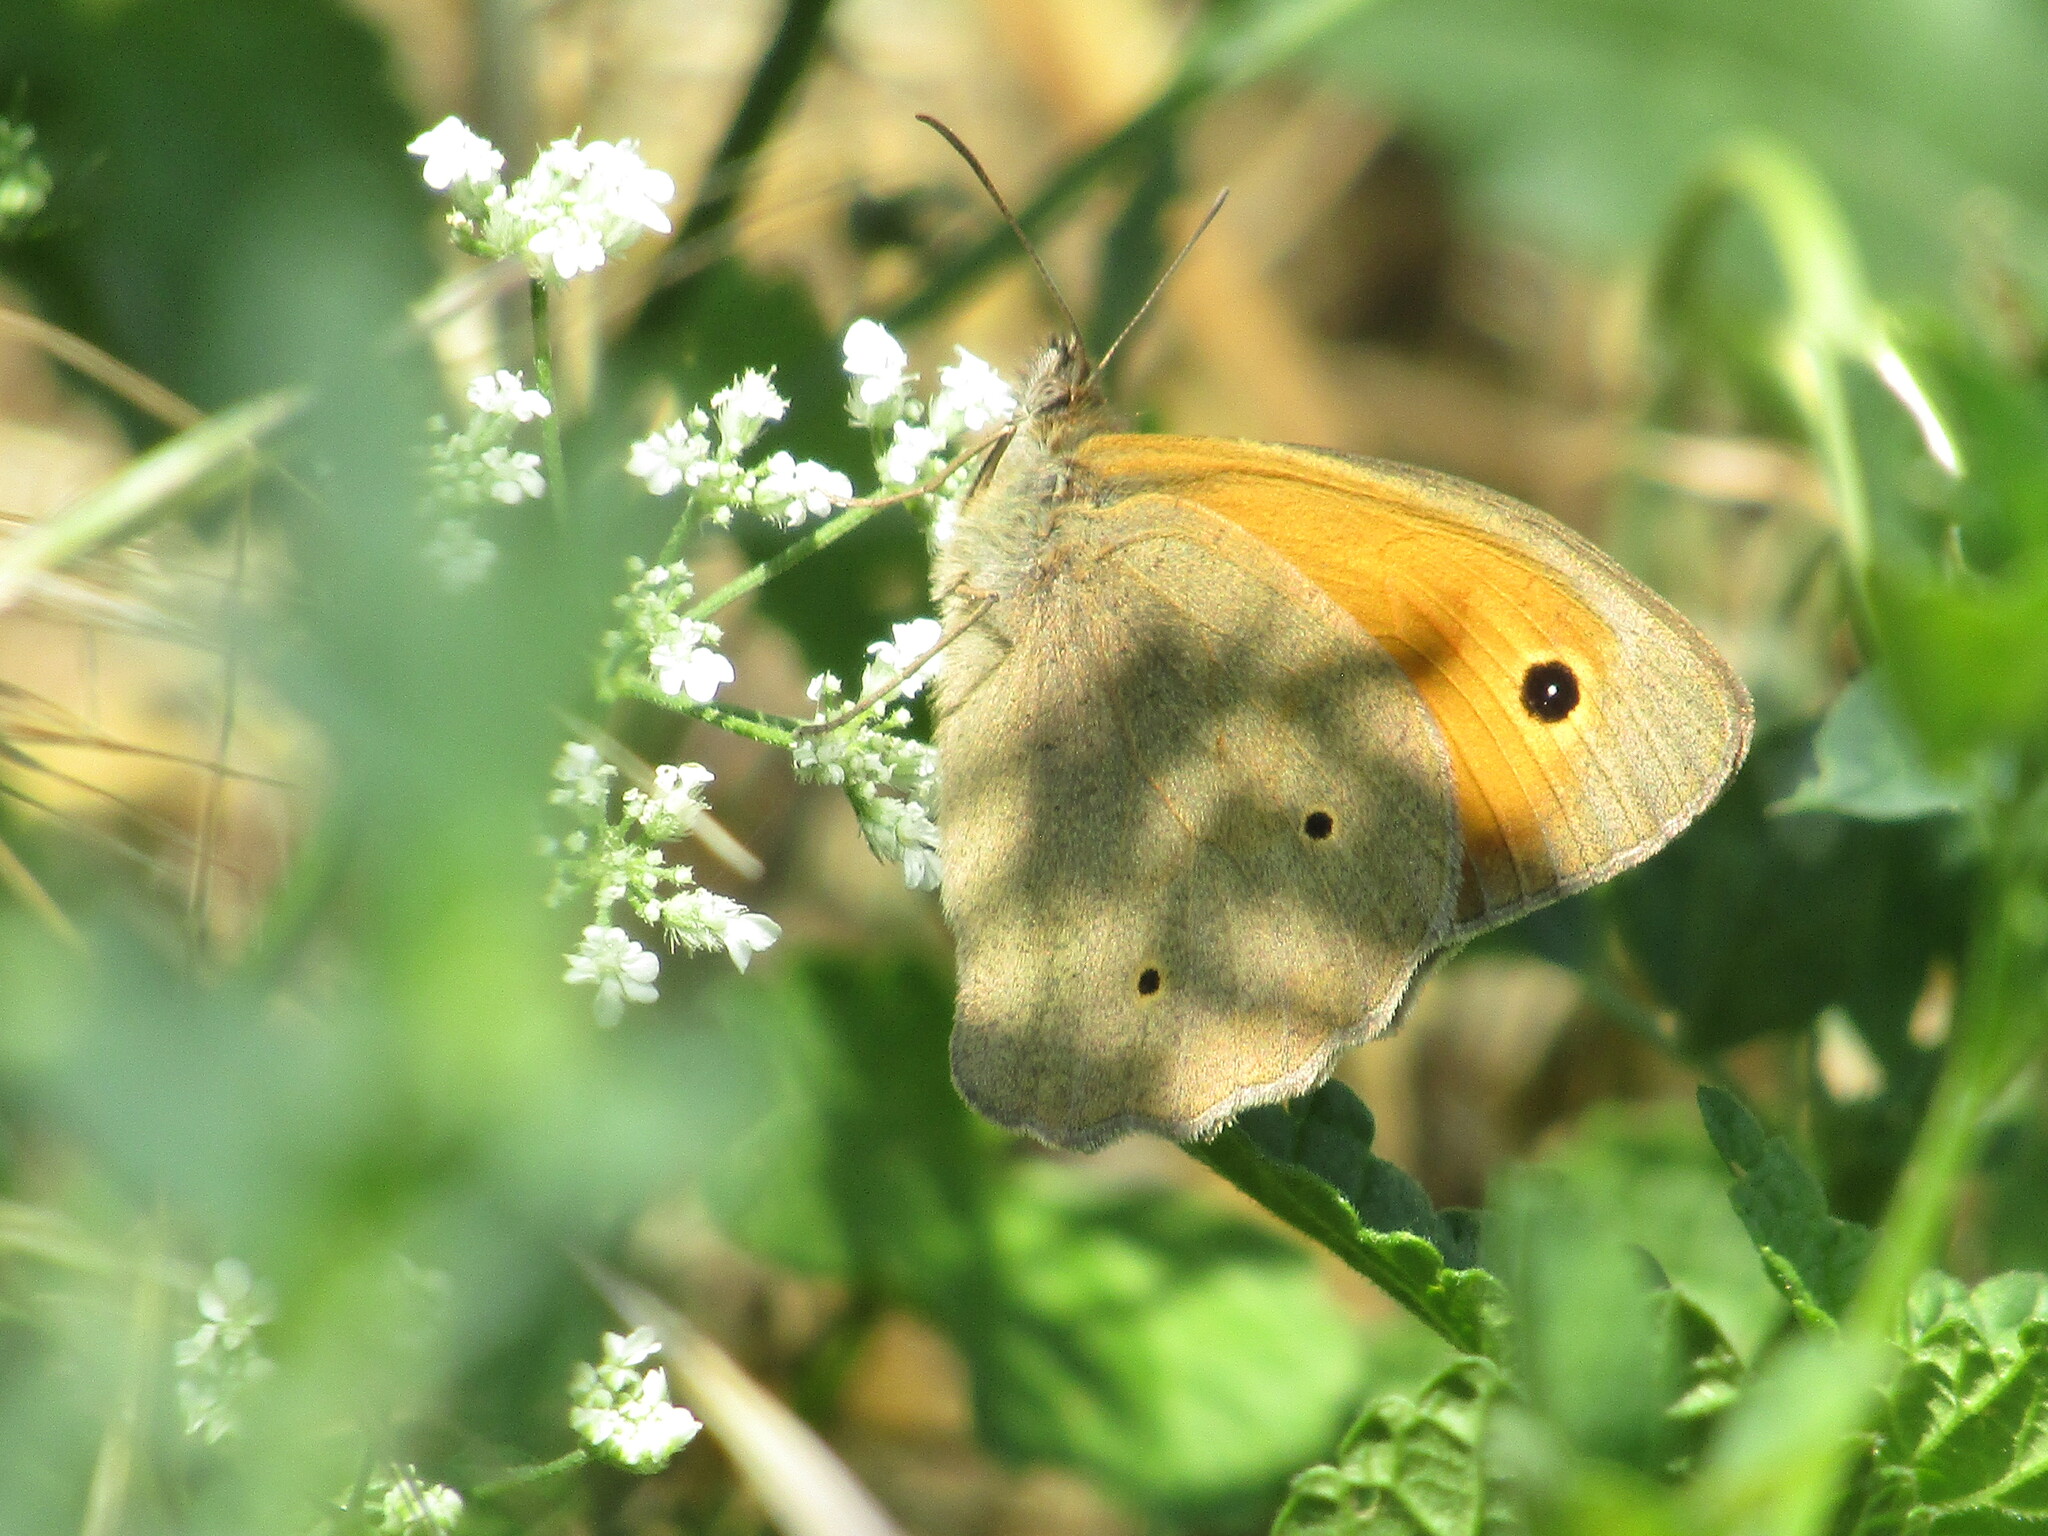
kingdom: Animalia
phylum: Arthropoda
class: Insecta
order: Lepidoptera
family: Nymphalidae
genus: Maniola
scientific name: Maniola jurtina
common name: Meadow brown
